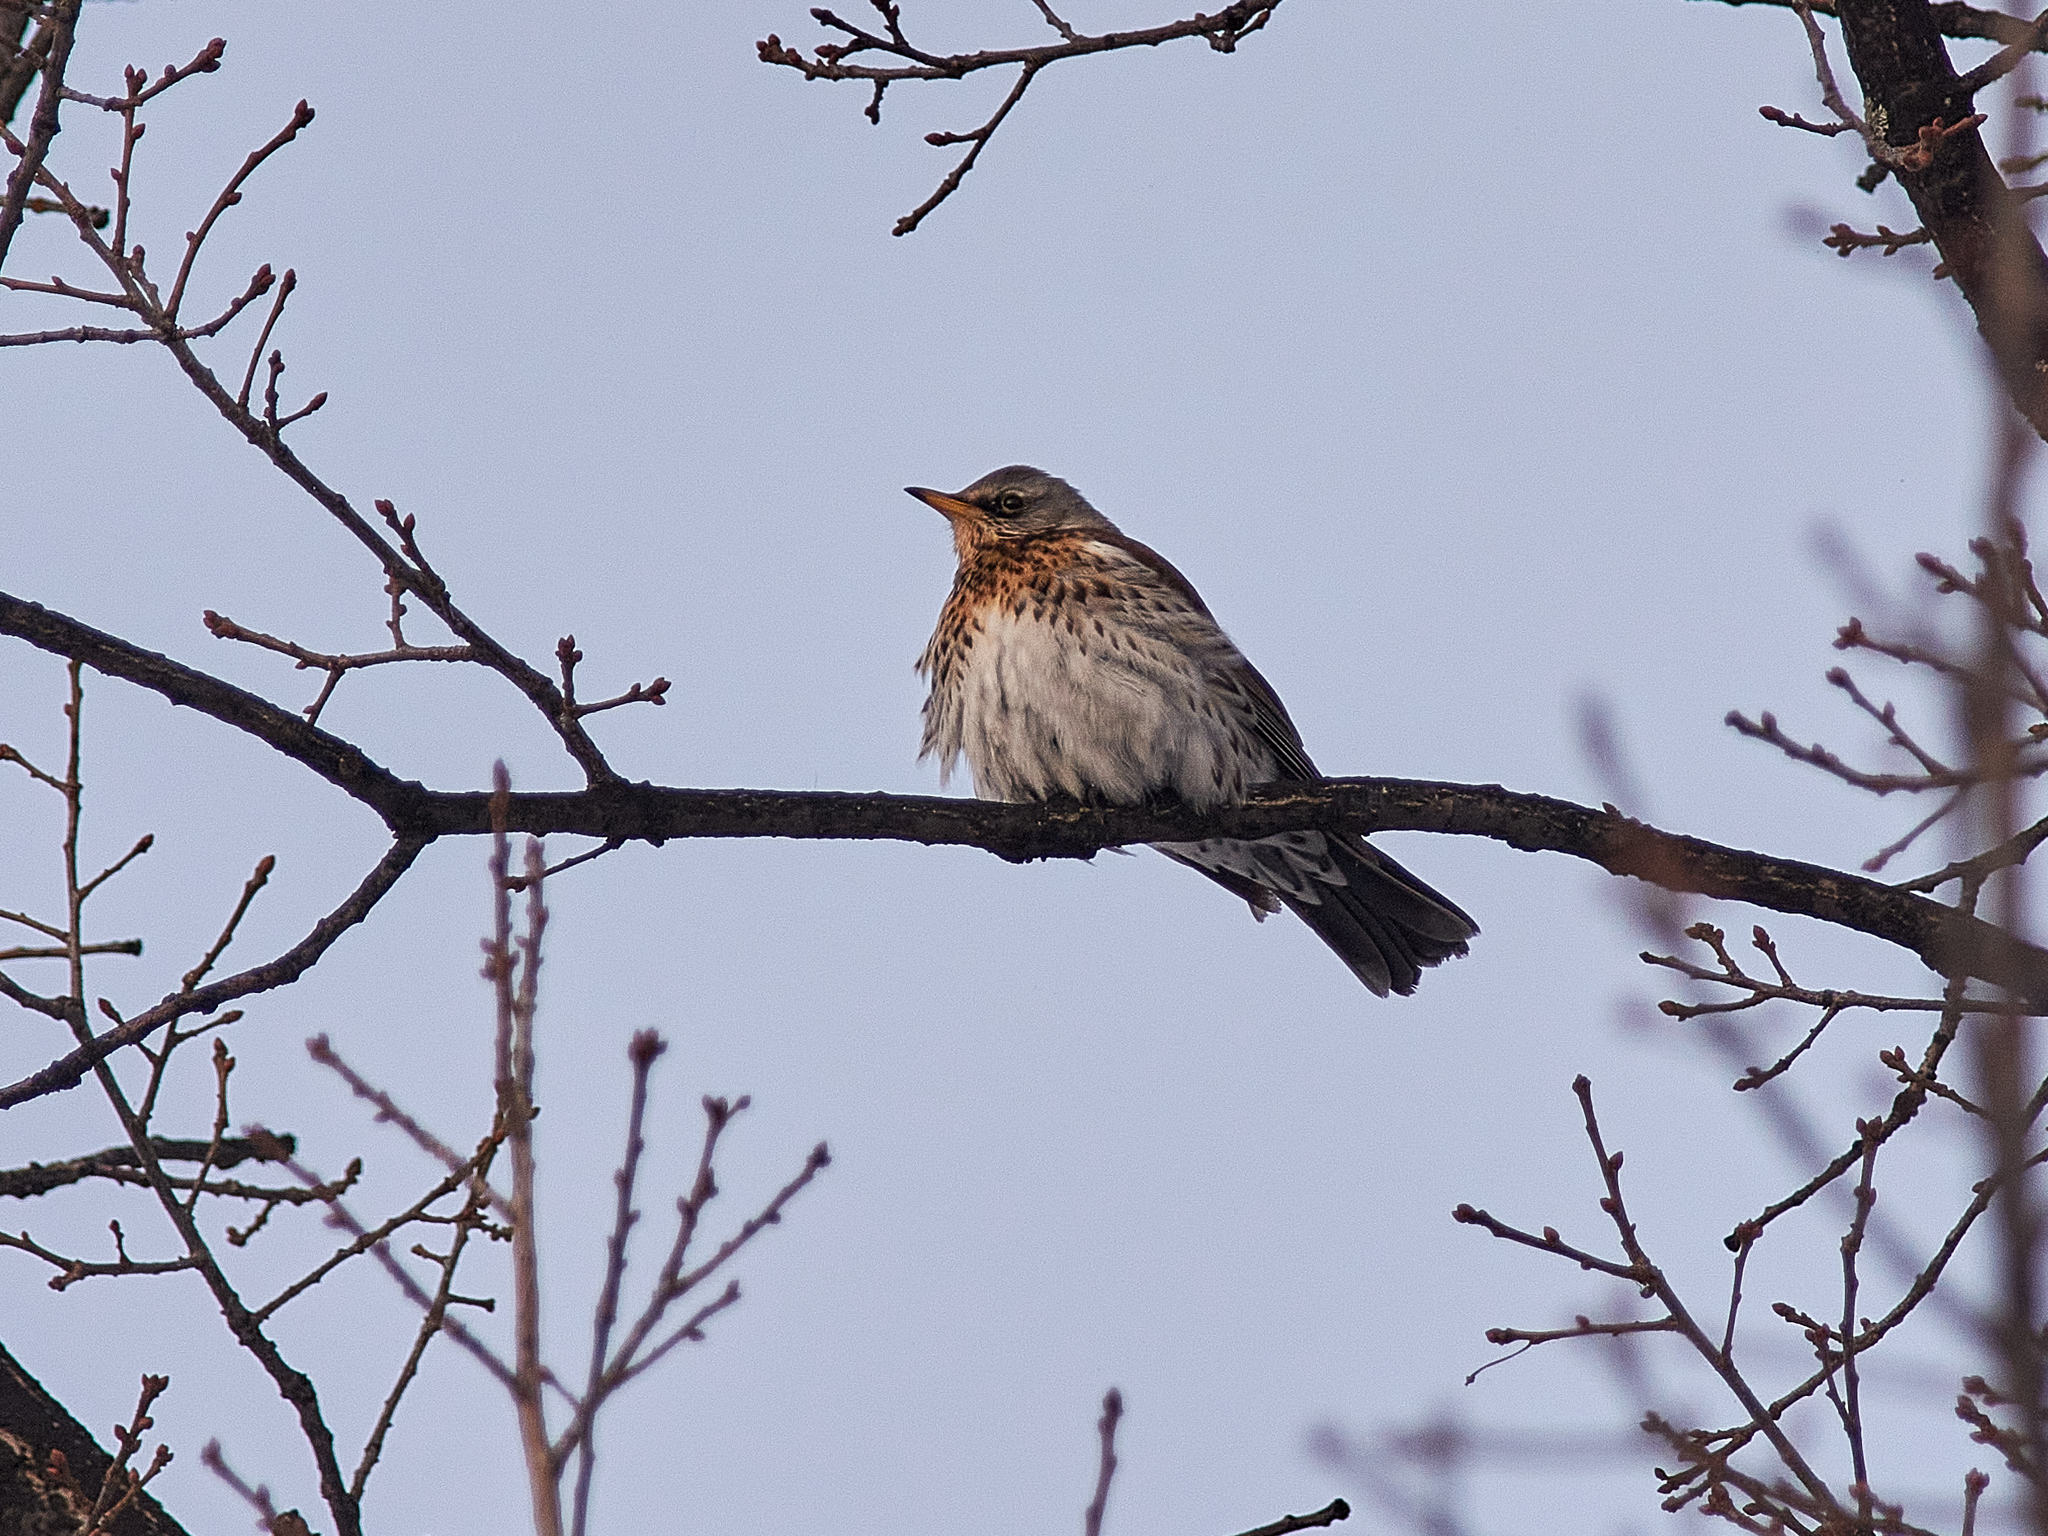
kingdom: Animalia
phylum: Chordata
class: Aves
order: Passeriformes
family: Turdidae
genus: Turdus
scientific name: Turdus pilaris
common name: Fieldfare
